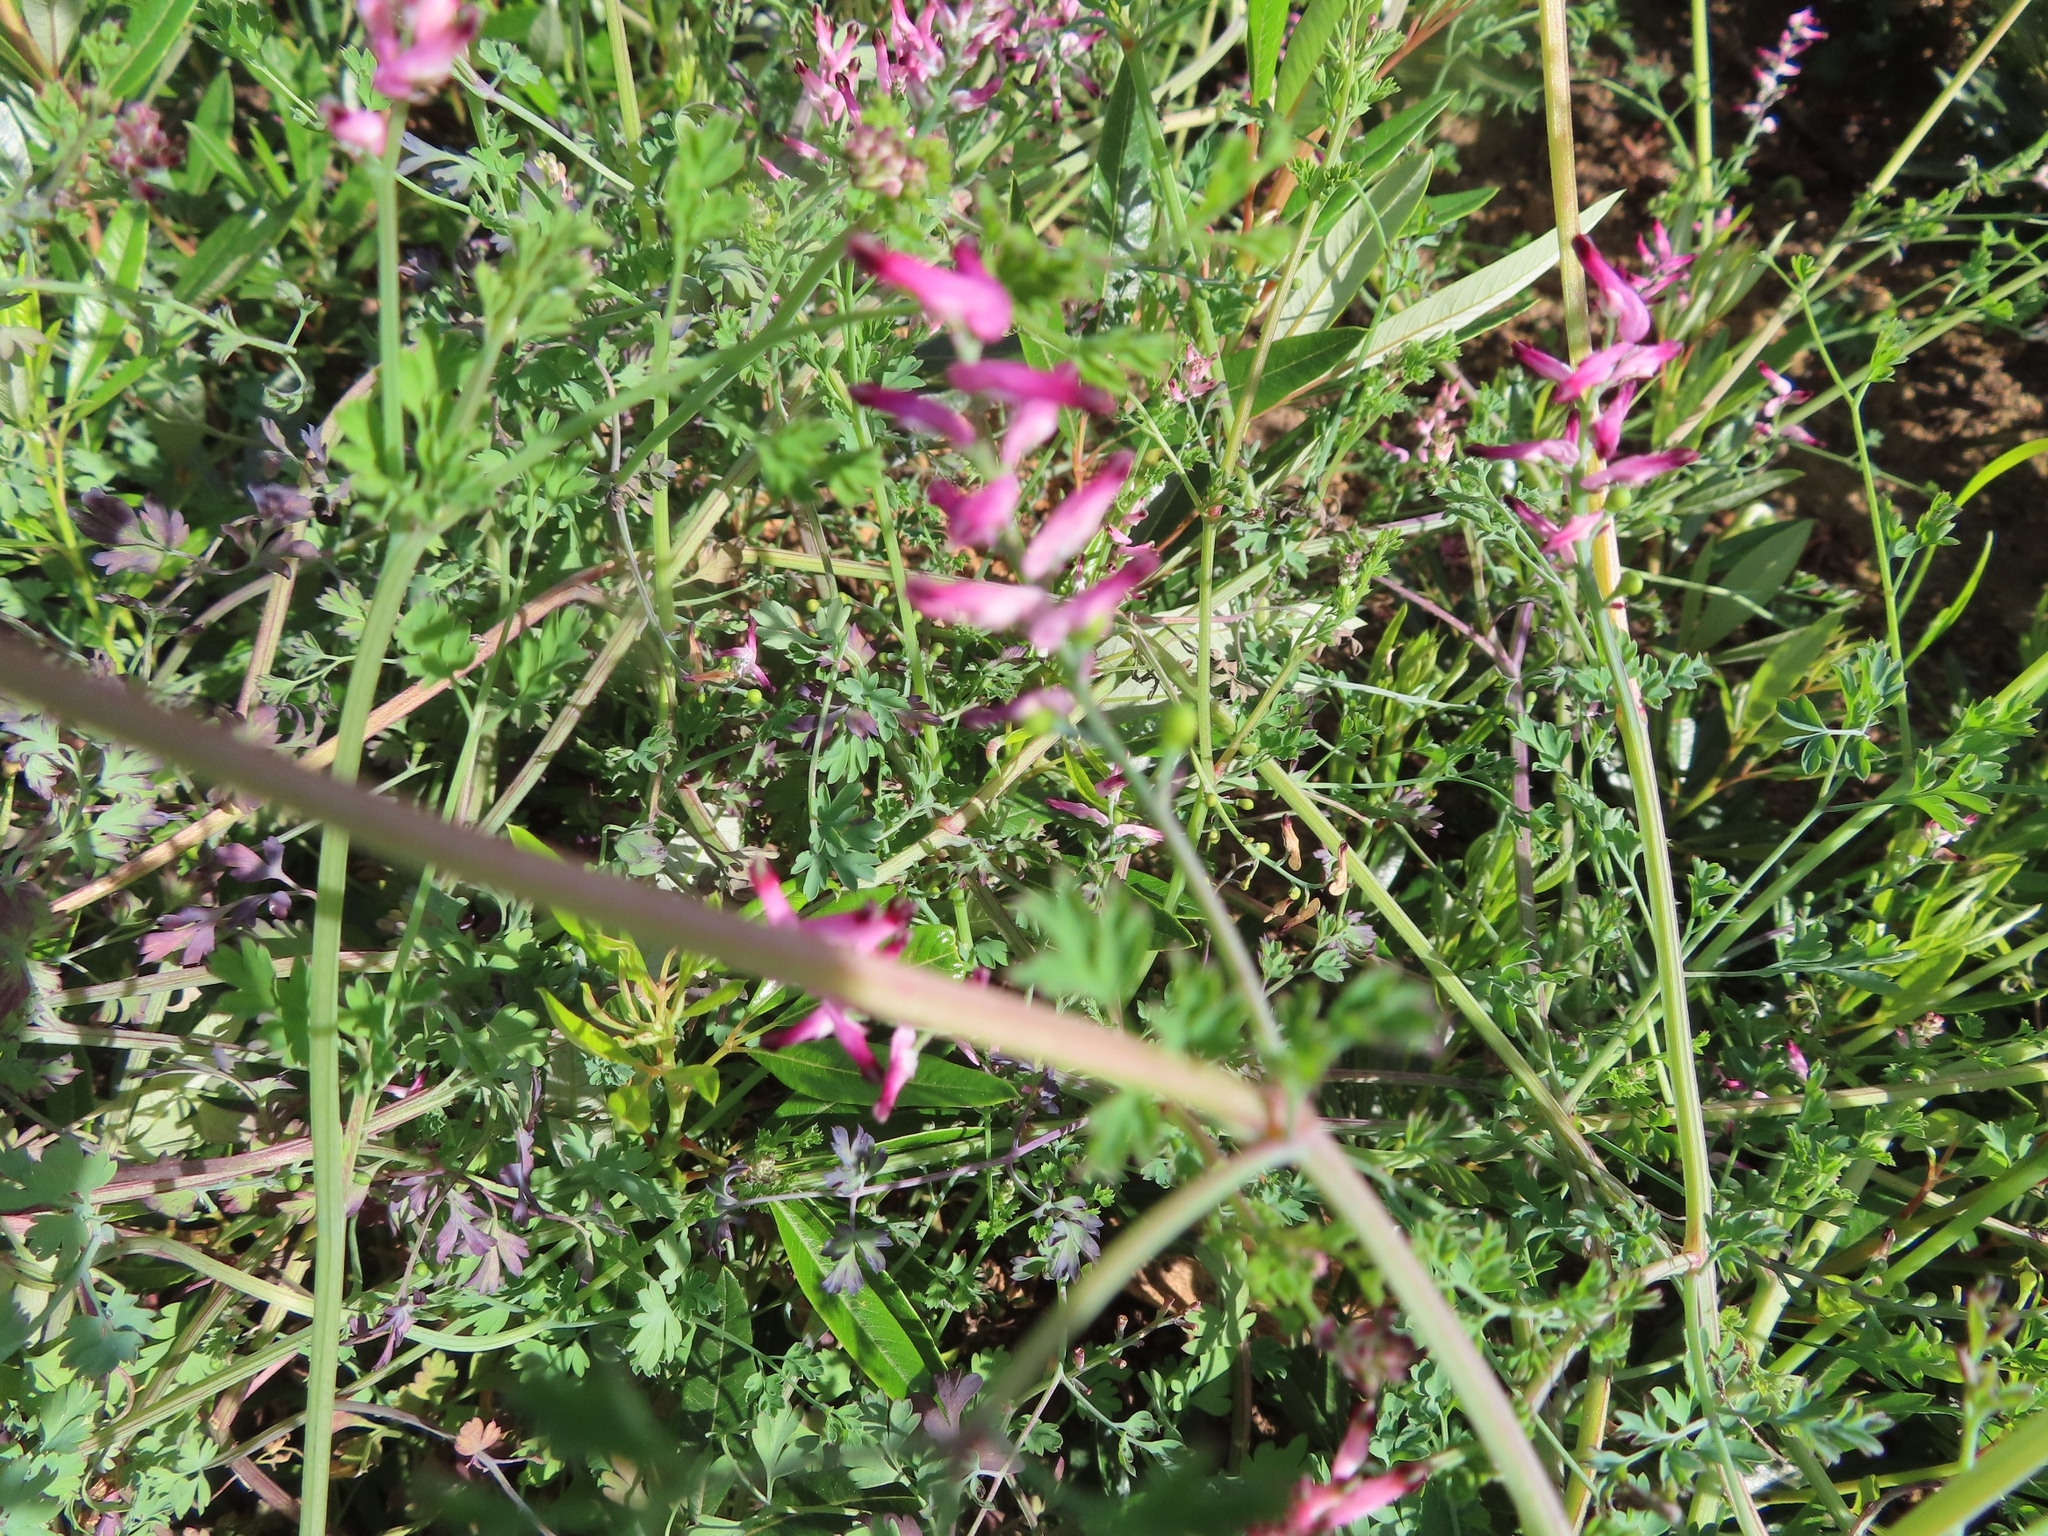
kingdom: Plantae
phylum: Tracheophyta
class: Magnoliopsida
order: Ranunculales
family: Papaveraceae
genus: Fumaria
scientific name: Fumaria muralis
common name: Common ramping-fumitory
